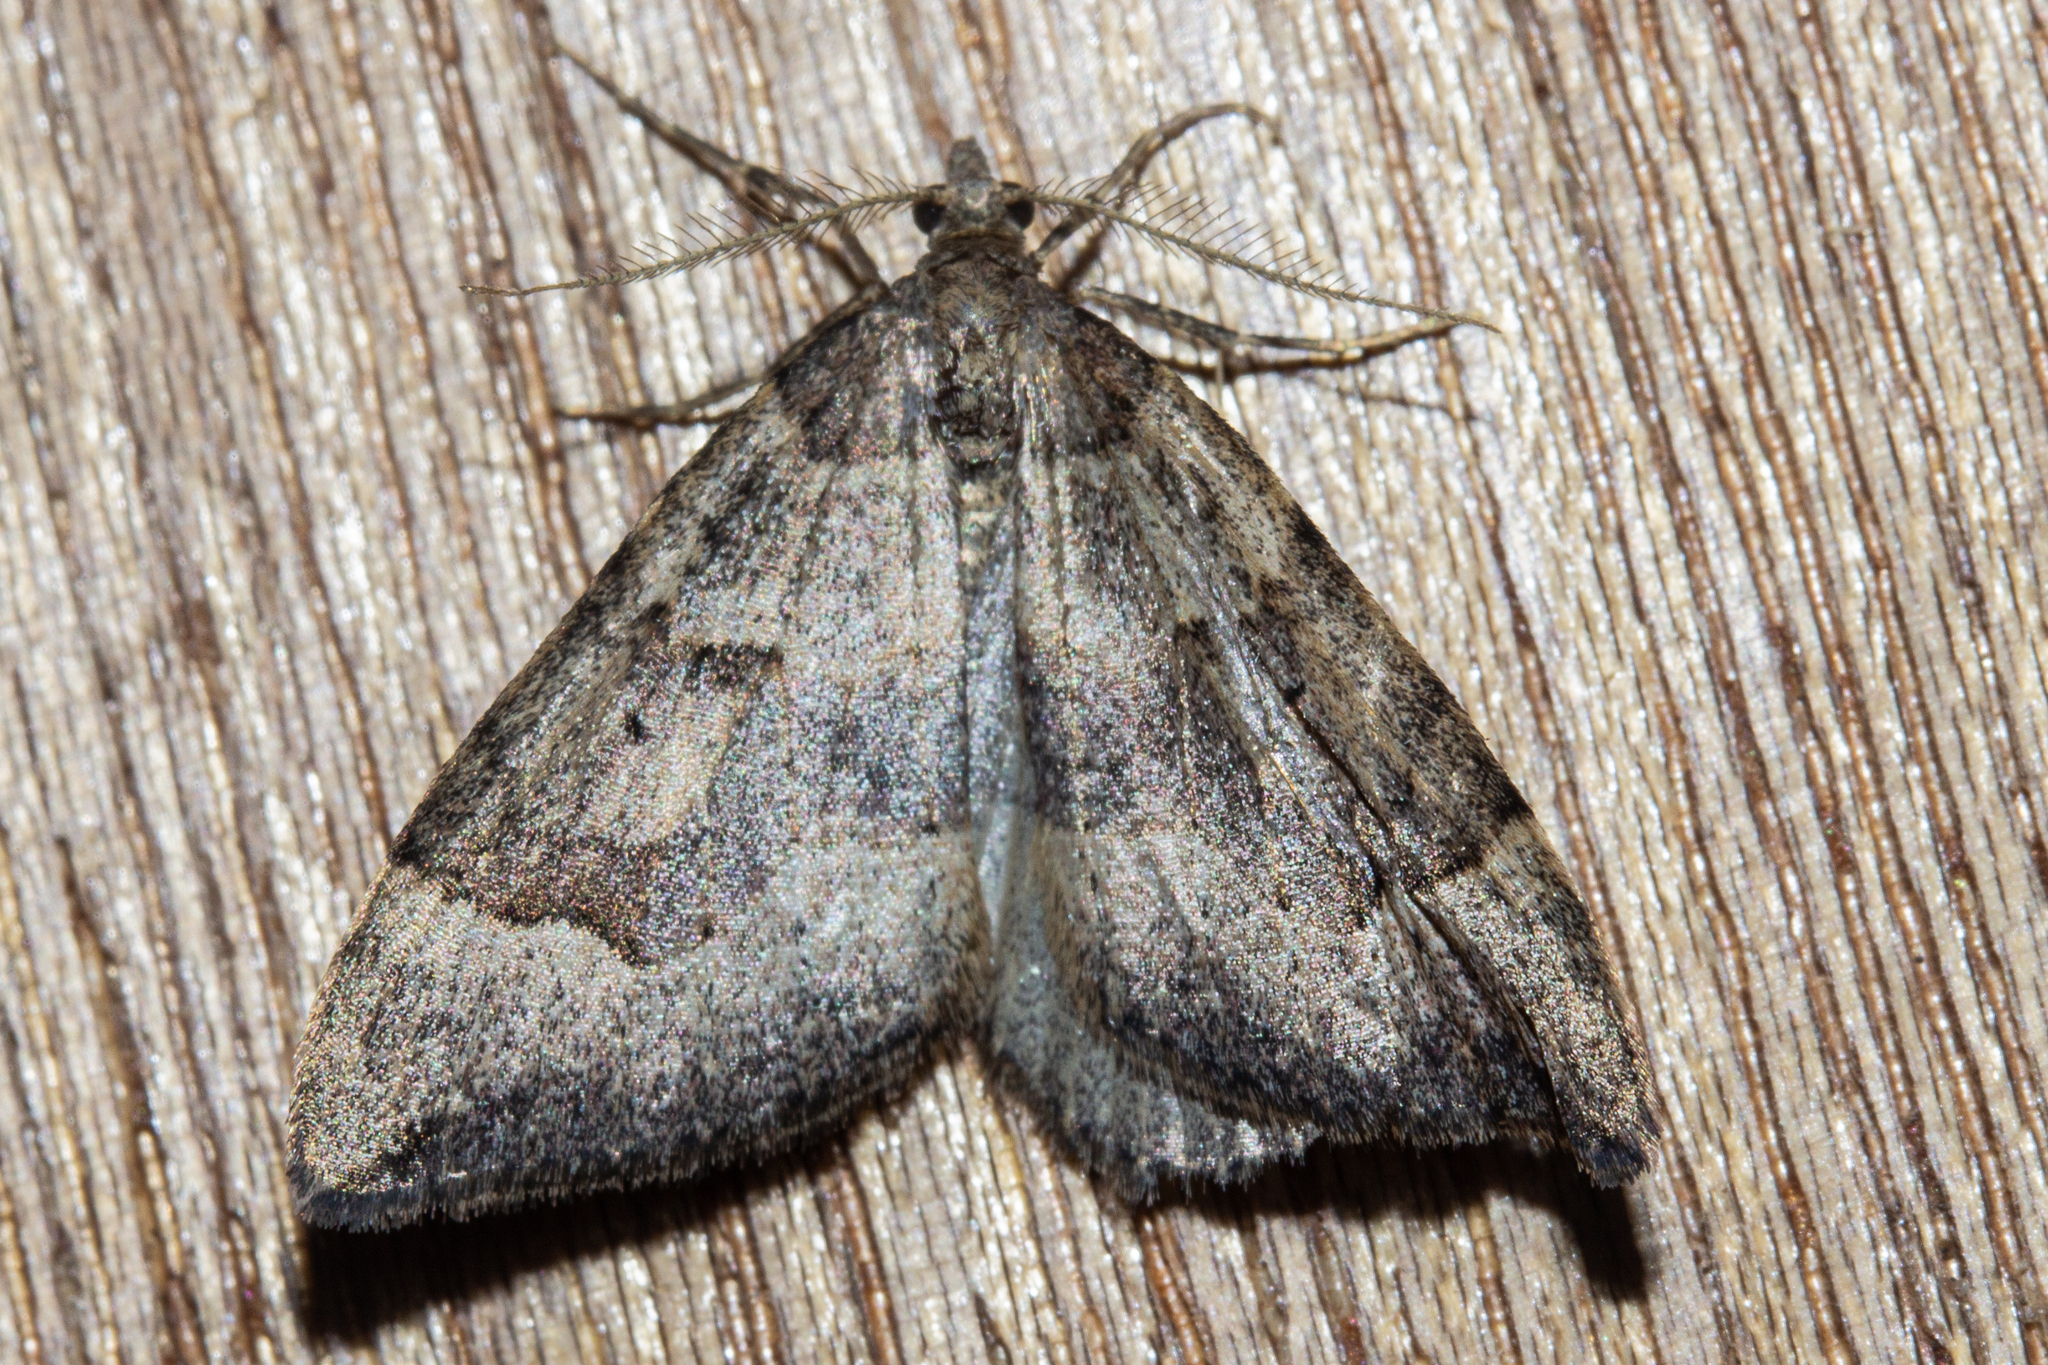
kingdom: Animalia
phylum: Arthropoda
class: Insecta
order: Lepidoptera
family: Geometridae
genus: Epyaxa
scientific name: Epyaxa rosearia
